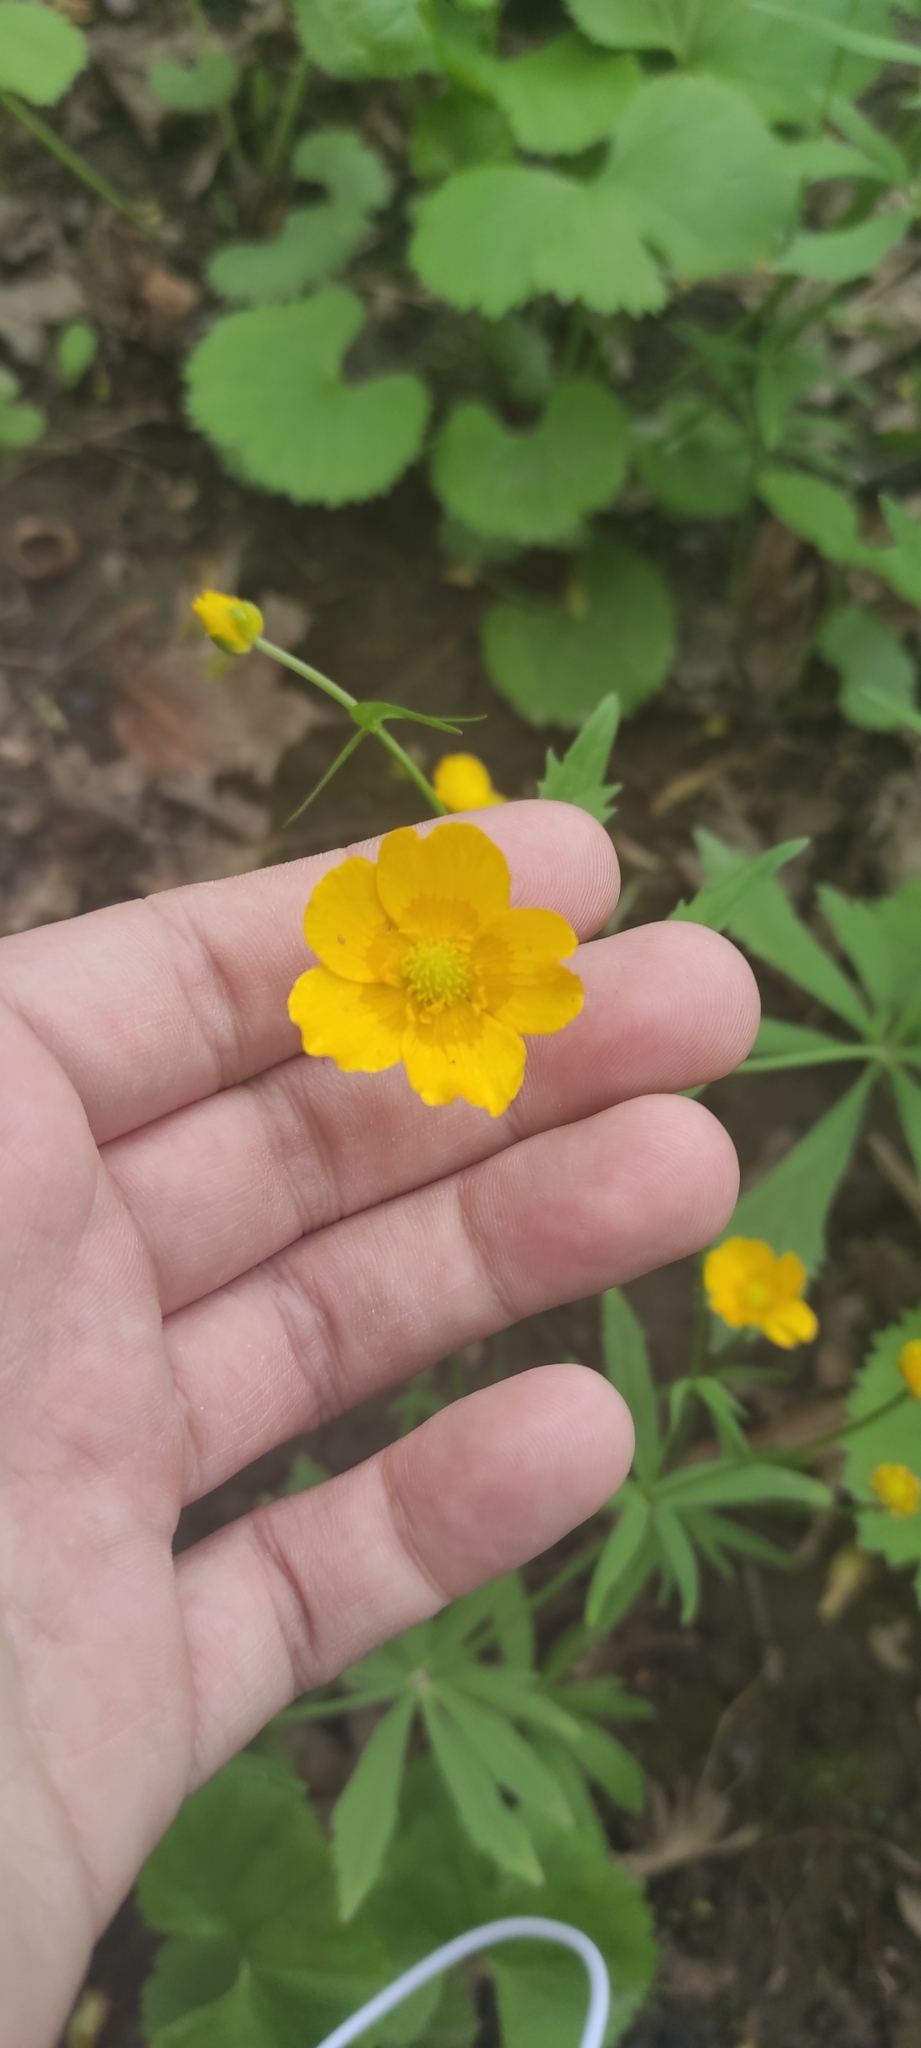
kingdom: Plantae
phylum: Tracheophyta
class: Magnoliopsida
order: Ranunculales
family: Ranunculaceae
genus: Ranunculus
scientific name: Ranunculus cassubicus
